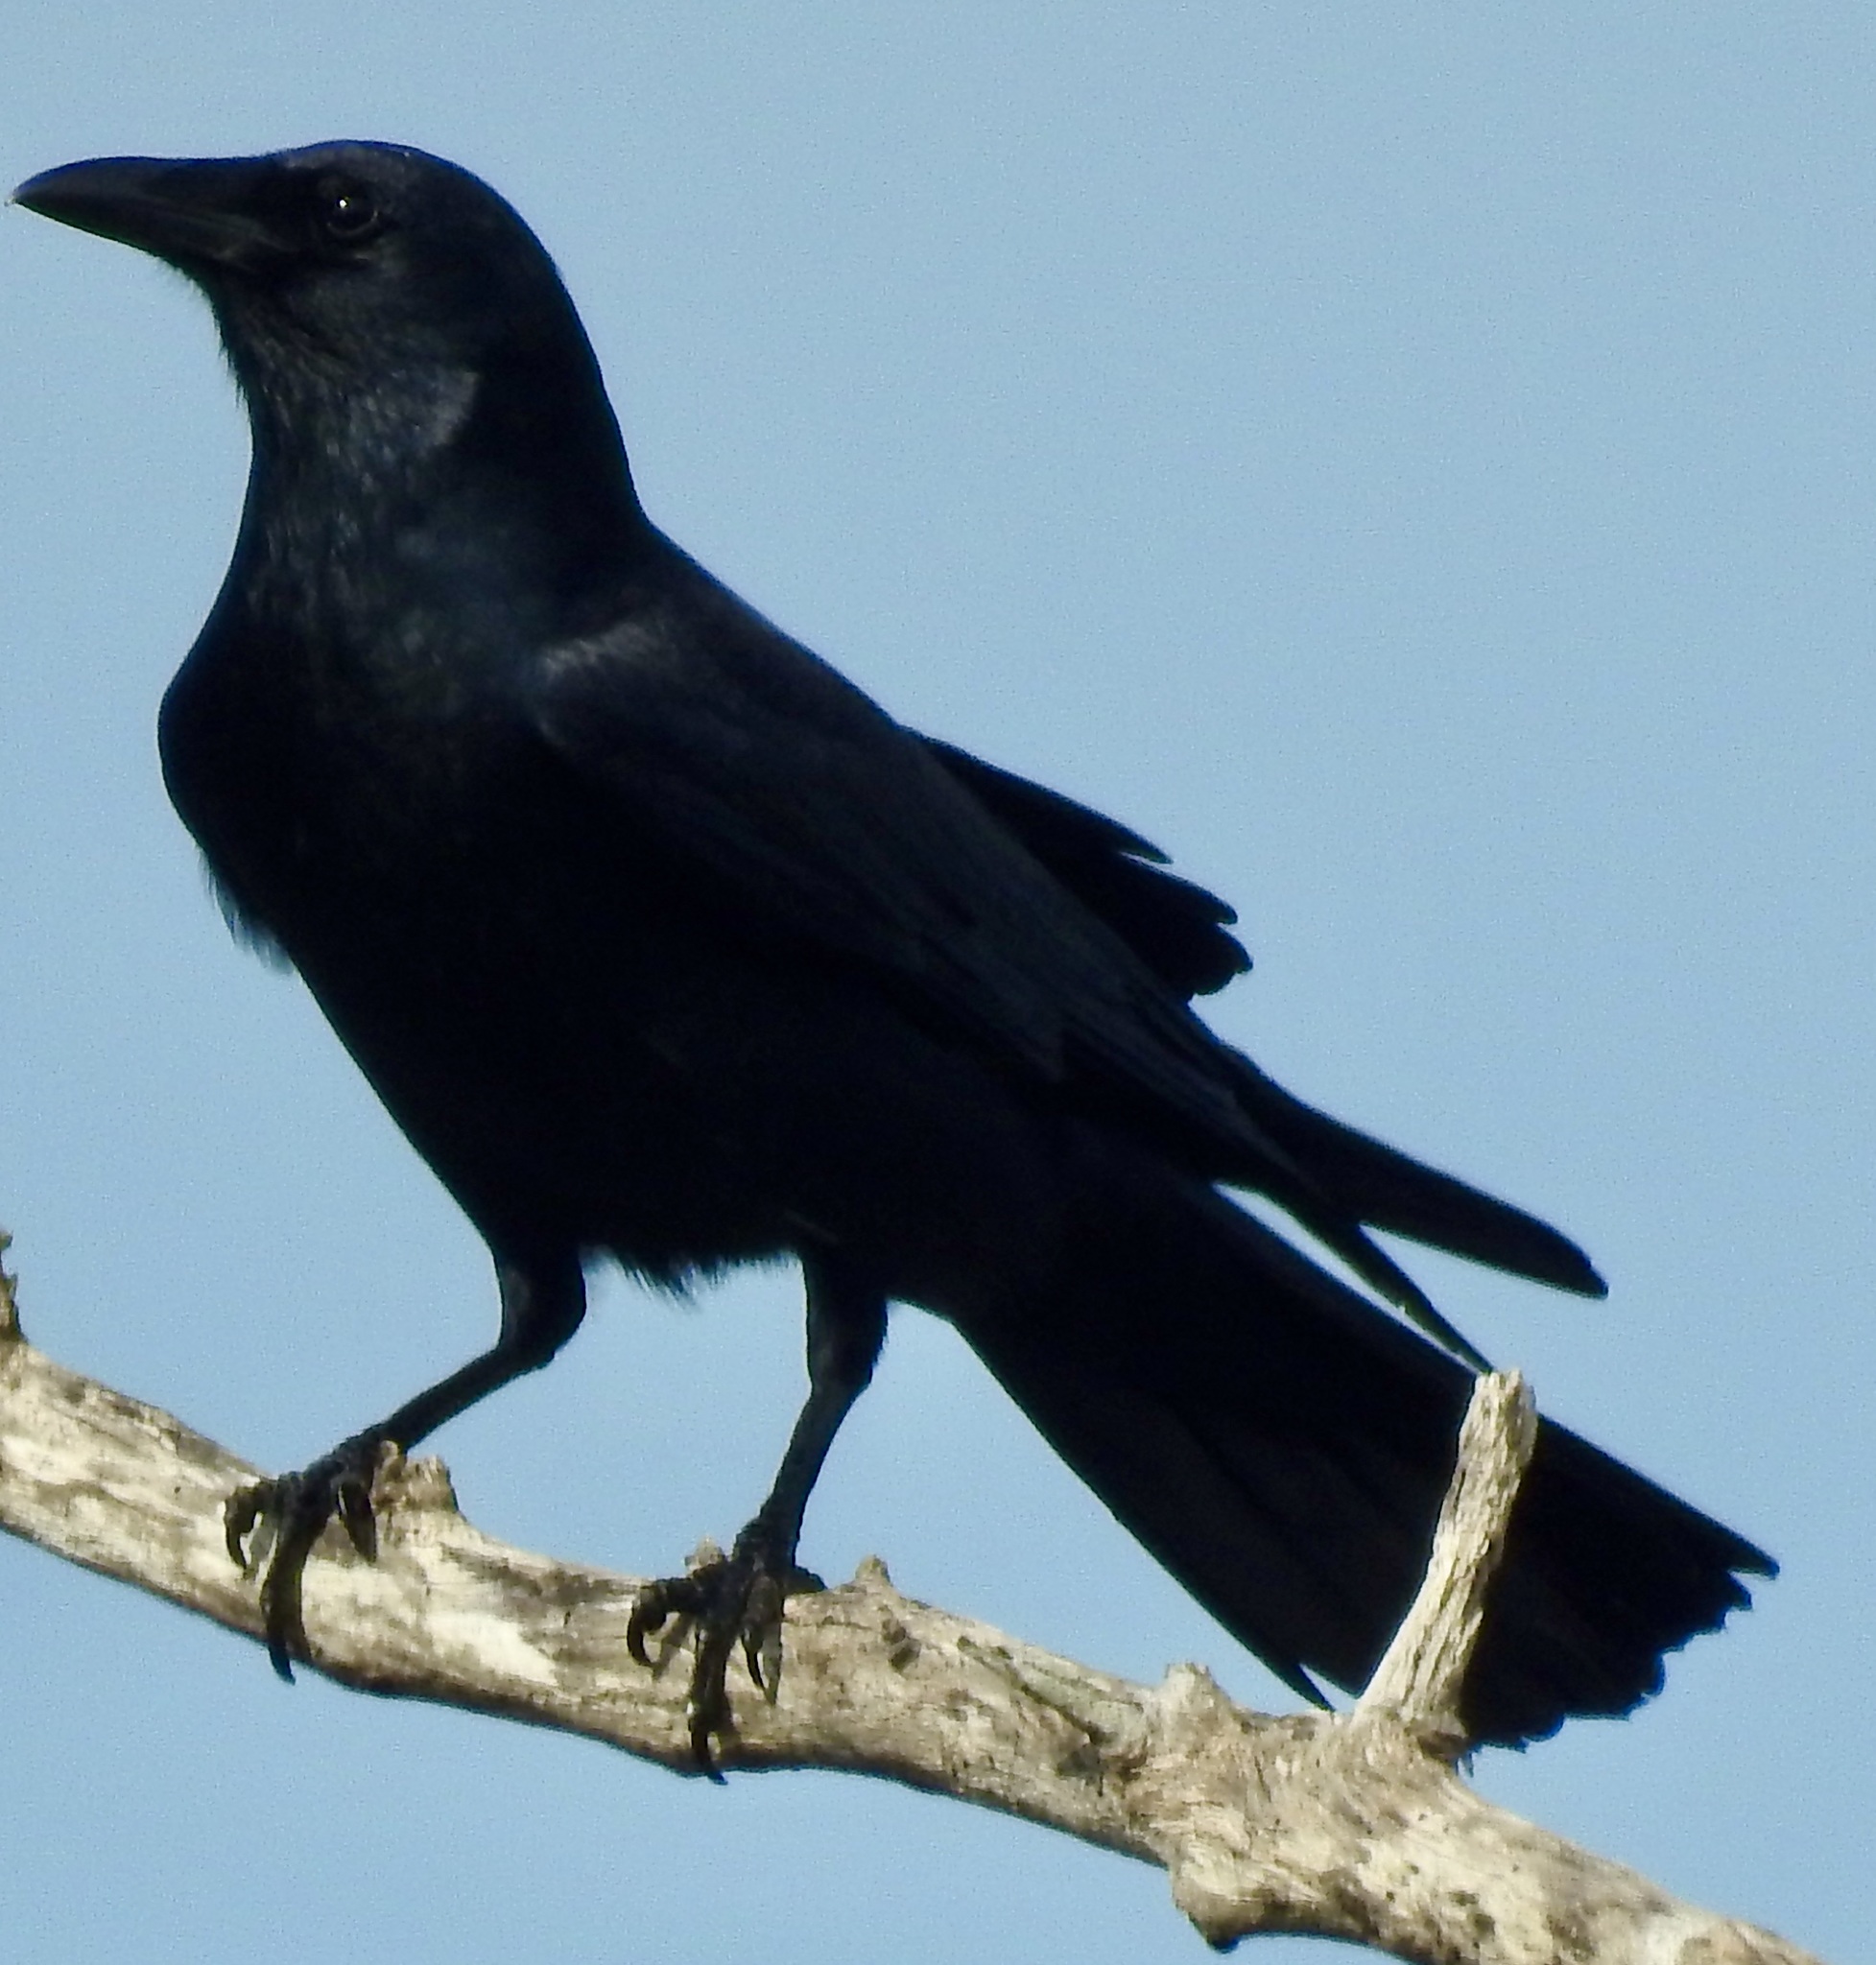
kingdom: Animalia
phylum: Chordata
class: Aves
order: Passeriformes
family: Corvidae
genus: Corvus
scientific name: Corvus ossifragus
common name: Fish crow
